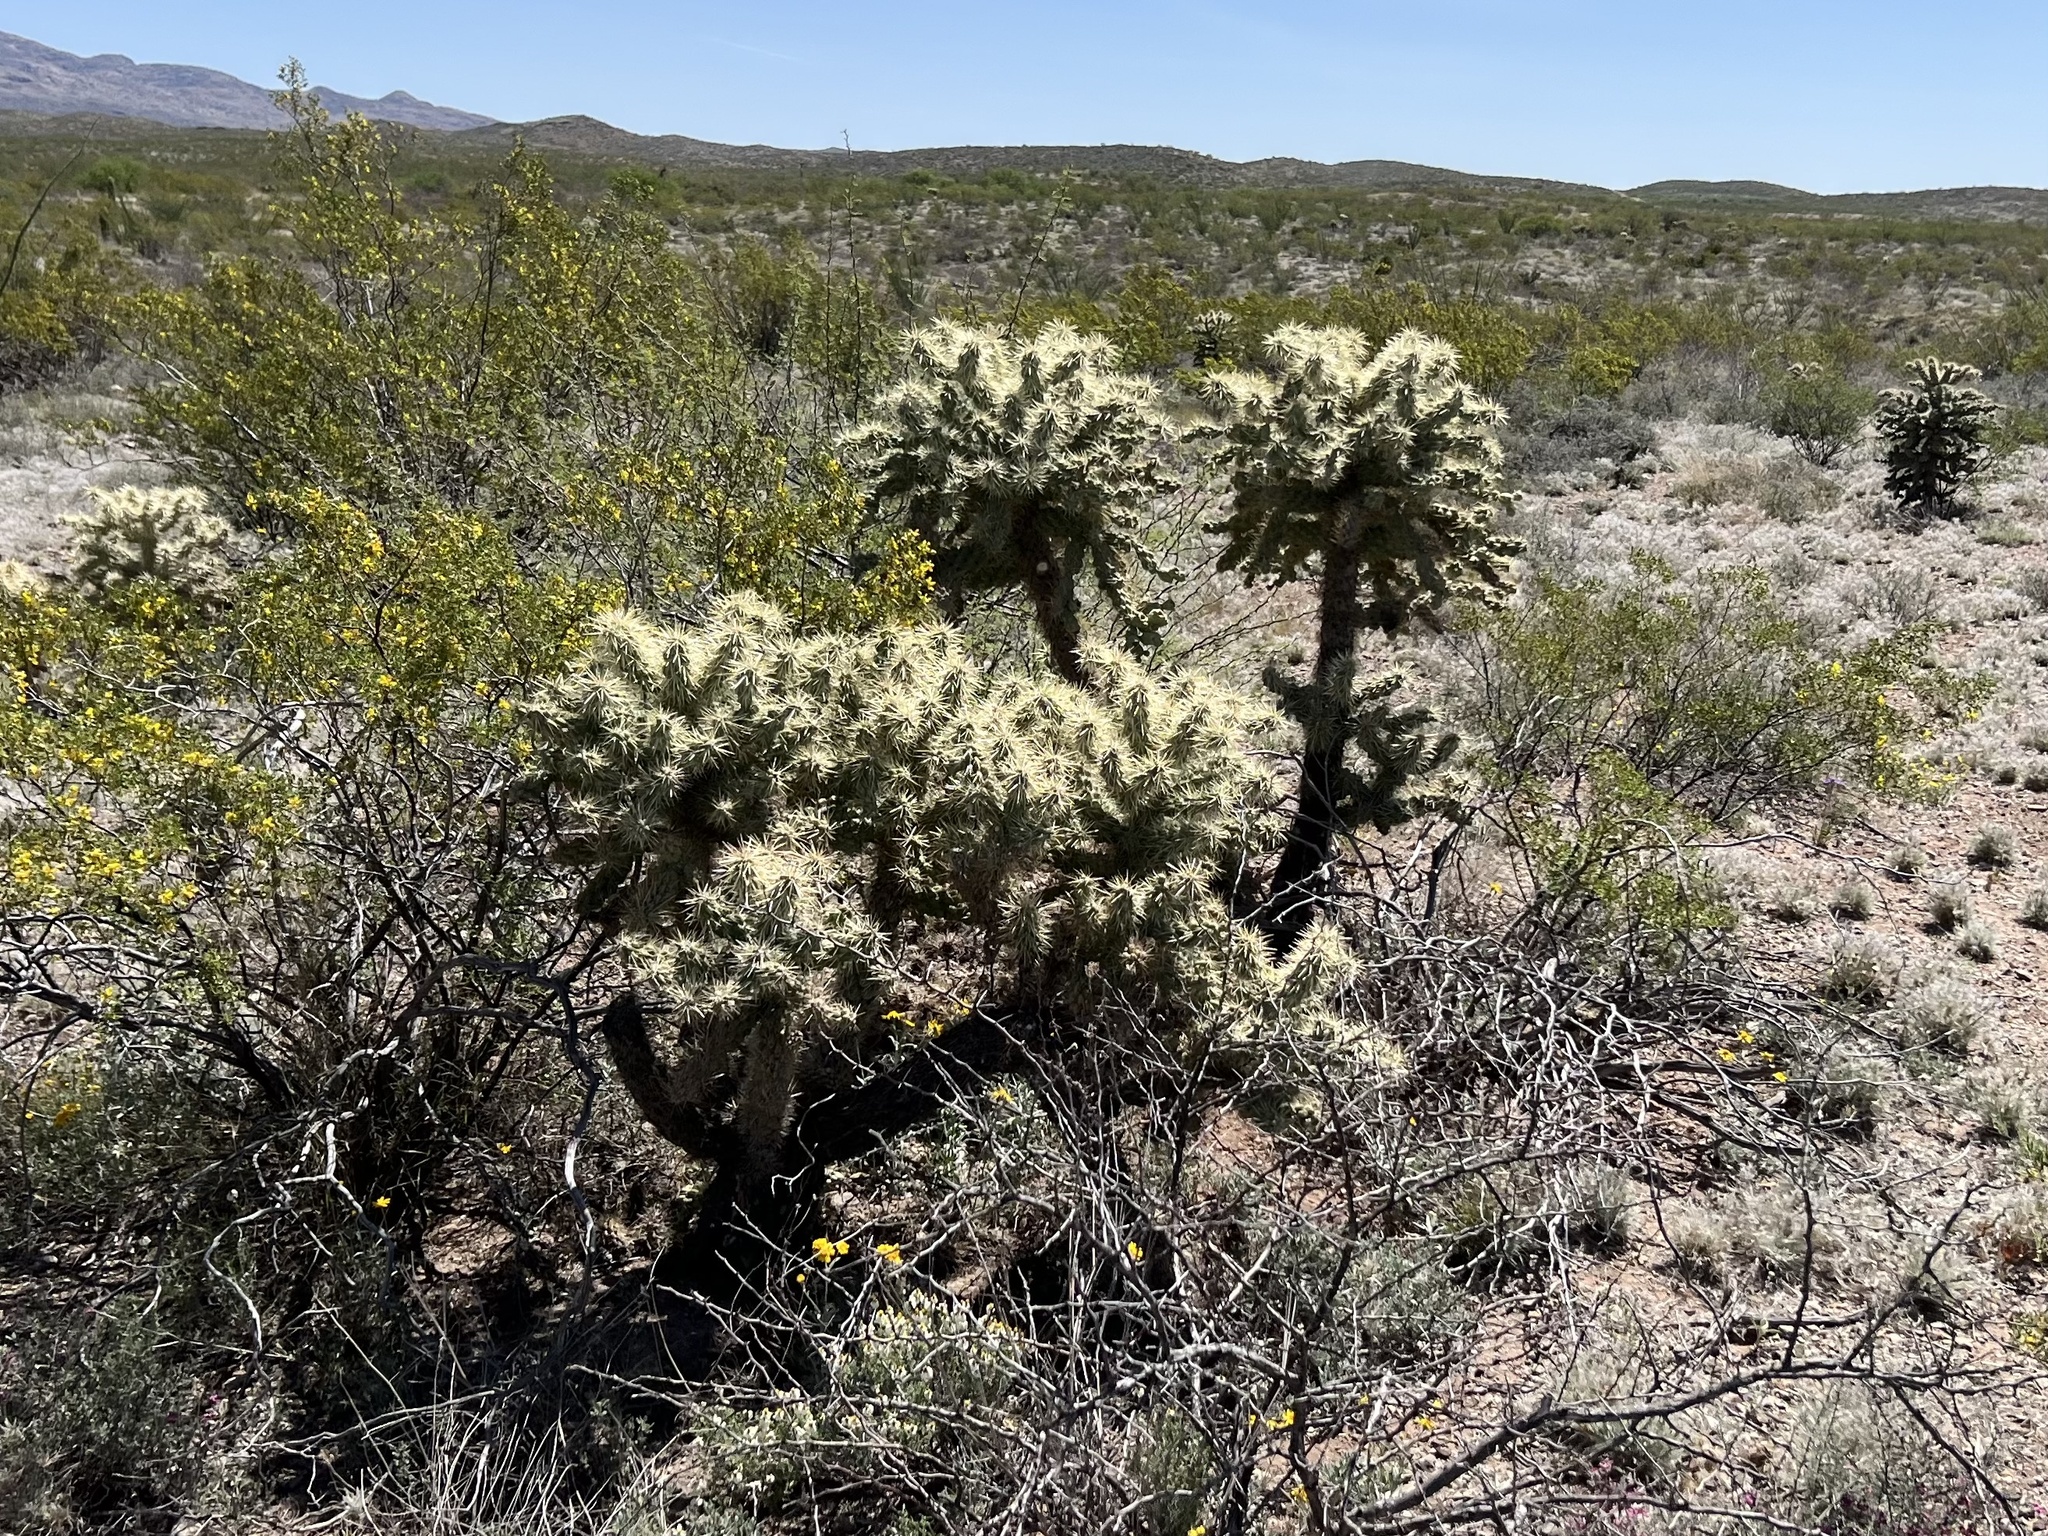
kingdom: Plantae
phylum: Tracheophyta
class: Magnoliopsida
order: Caryophyllales
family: Cactaceae
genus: Cylindropuntia
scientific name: Cylindropuntia fulgida
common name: Jumping cholla
